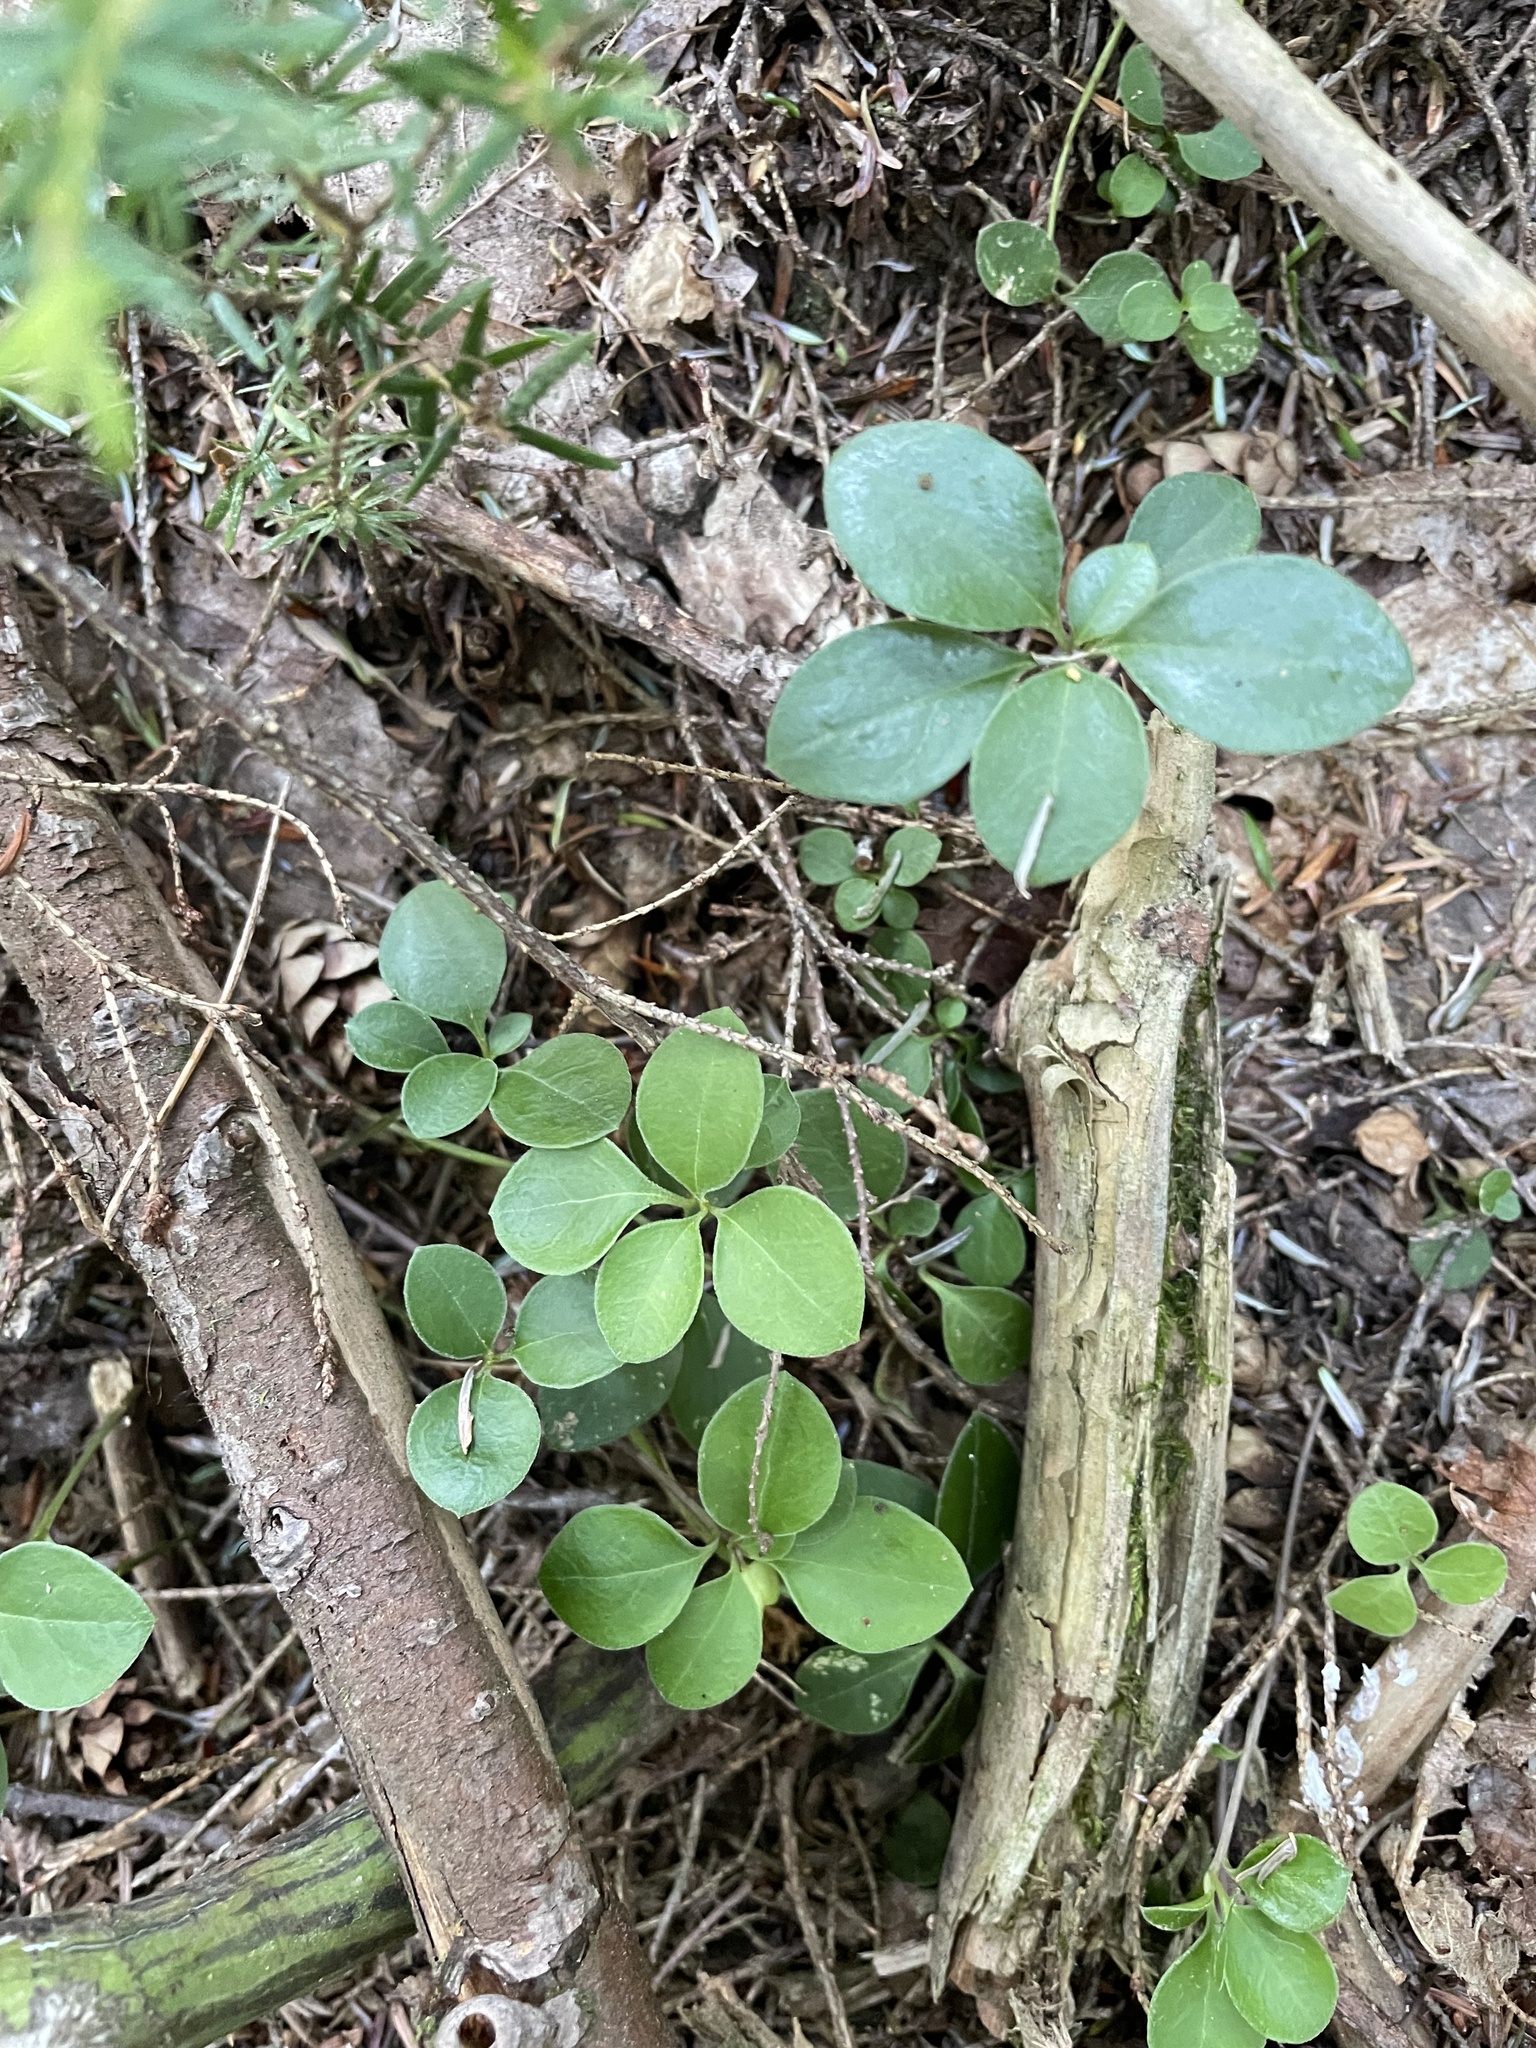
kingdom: Plantae
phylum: Tracheophyta
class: Magnoliopsida
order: Fabales
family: Polygalaceae
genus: Polygaloides
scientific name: Polygaloides paucifolia
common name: Bird-on-the-wing
